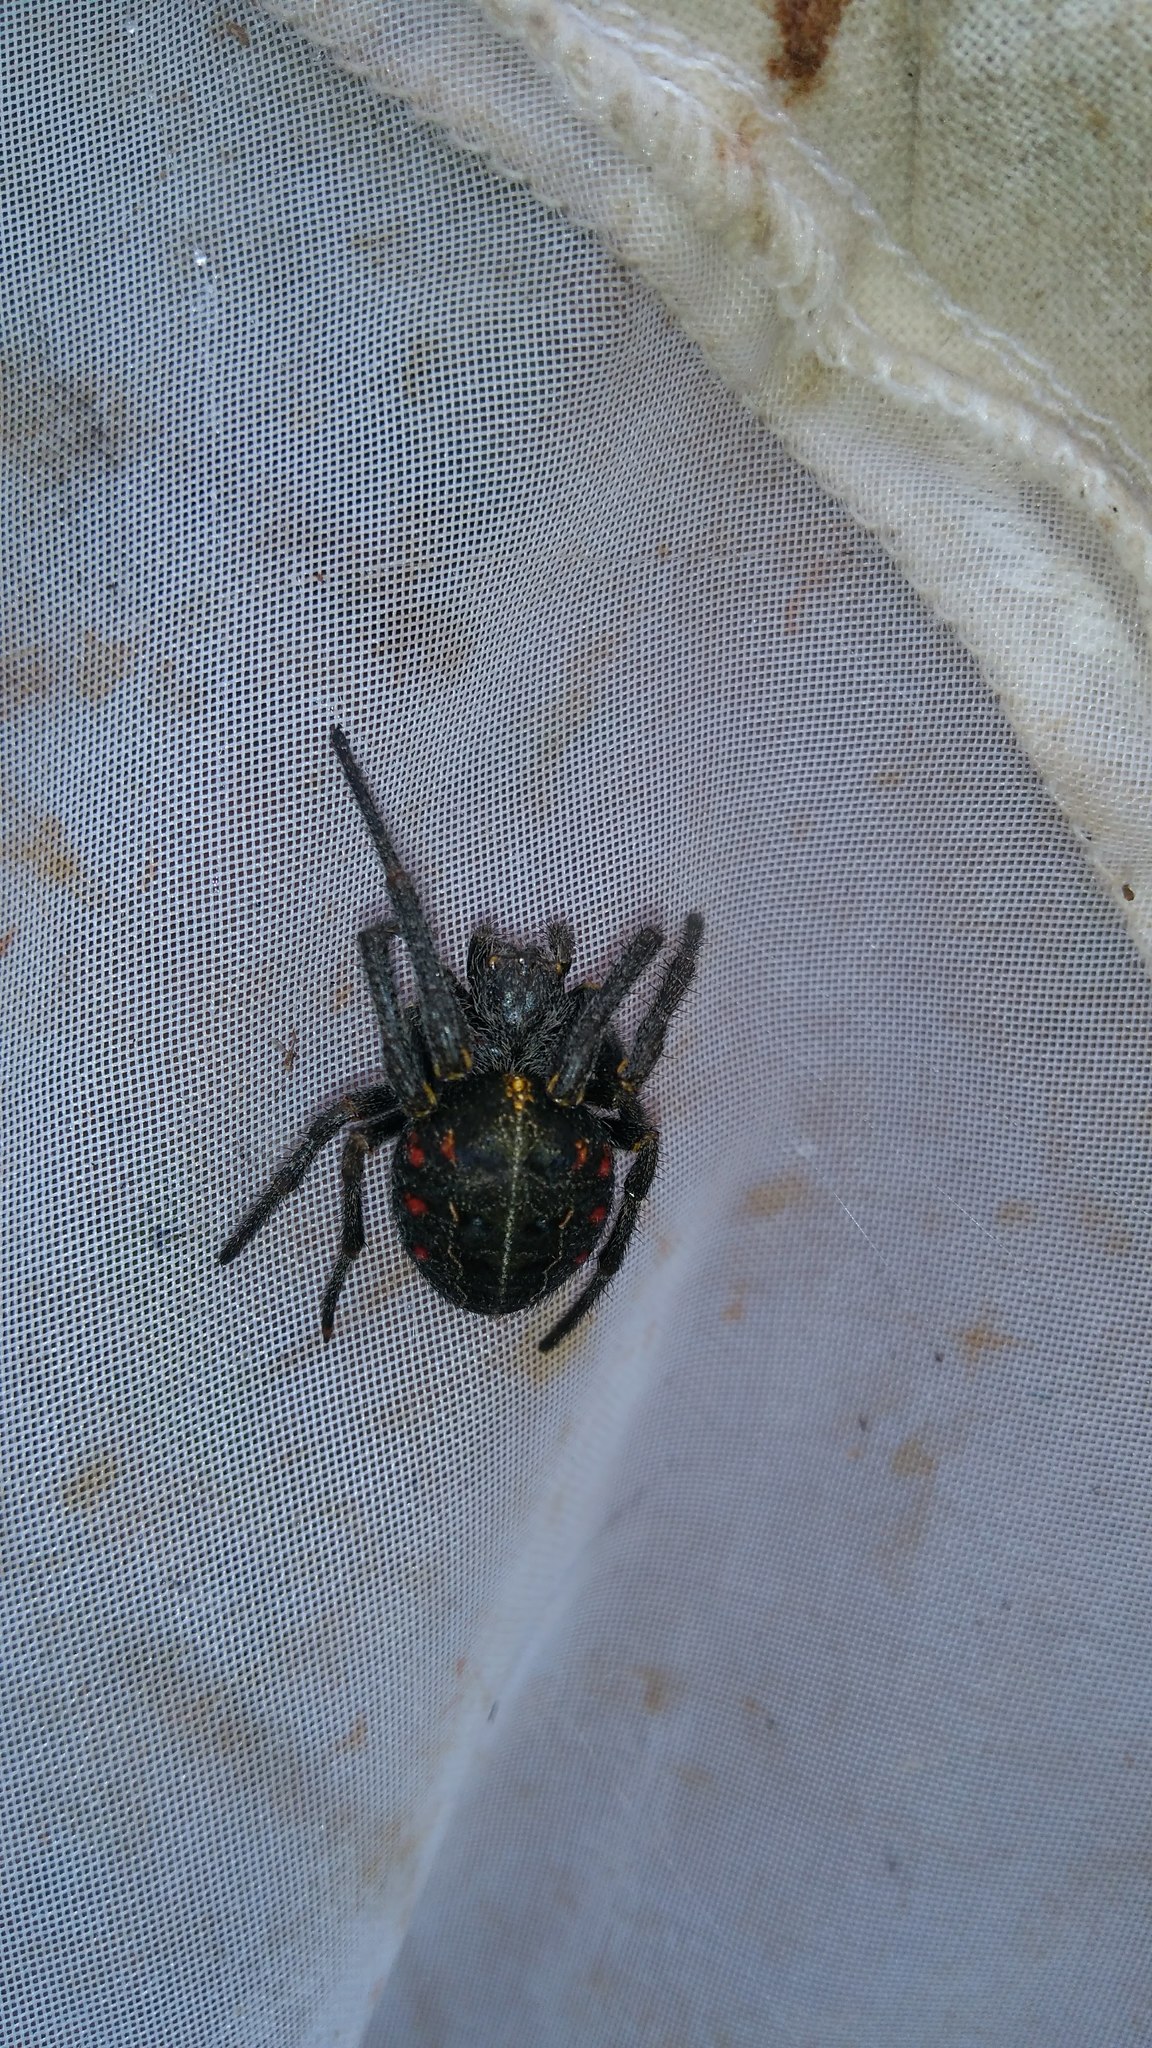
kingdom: Animalia
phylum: Arthropoda
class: Arachnida
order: Araneae
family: Araneidae
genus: Parawixia
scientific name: Parawixia bistriata
